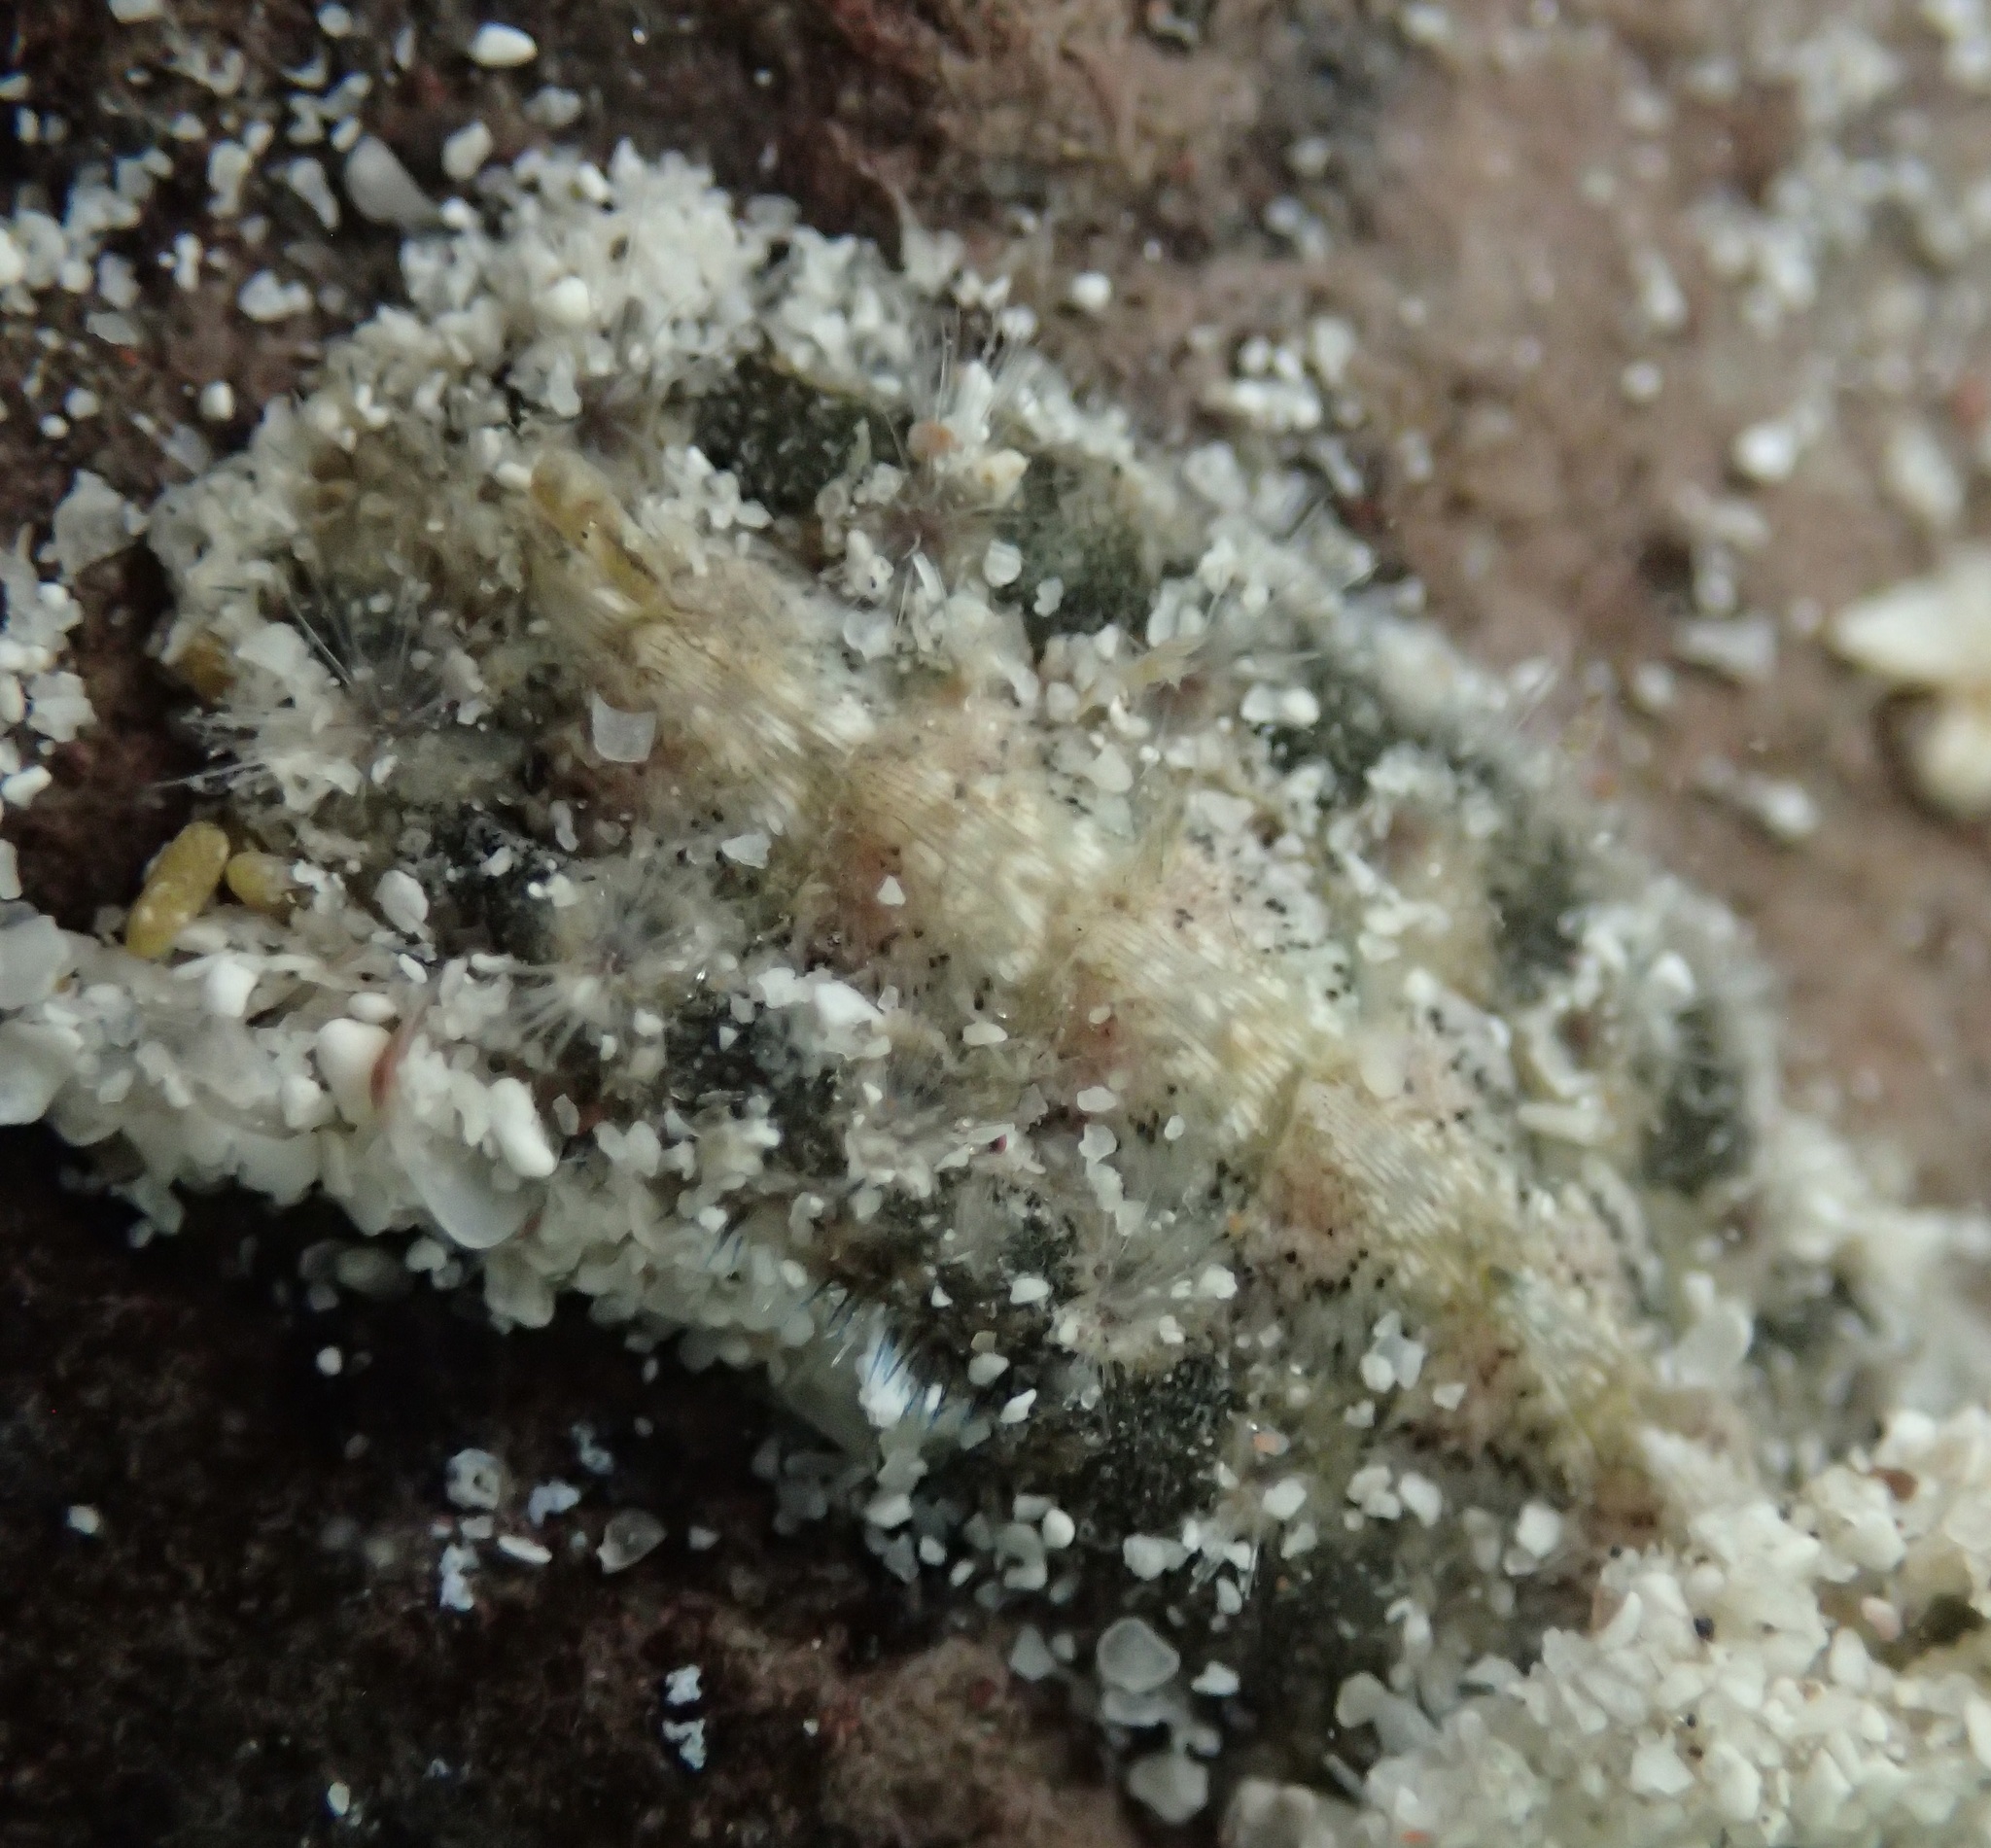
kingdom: Animalia
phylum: Mollusca
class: Polyplacophora
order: Chitonida
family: Acanthochitonidae
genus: Acanthochitona
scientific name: Acanthochitona avicula
